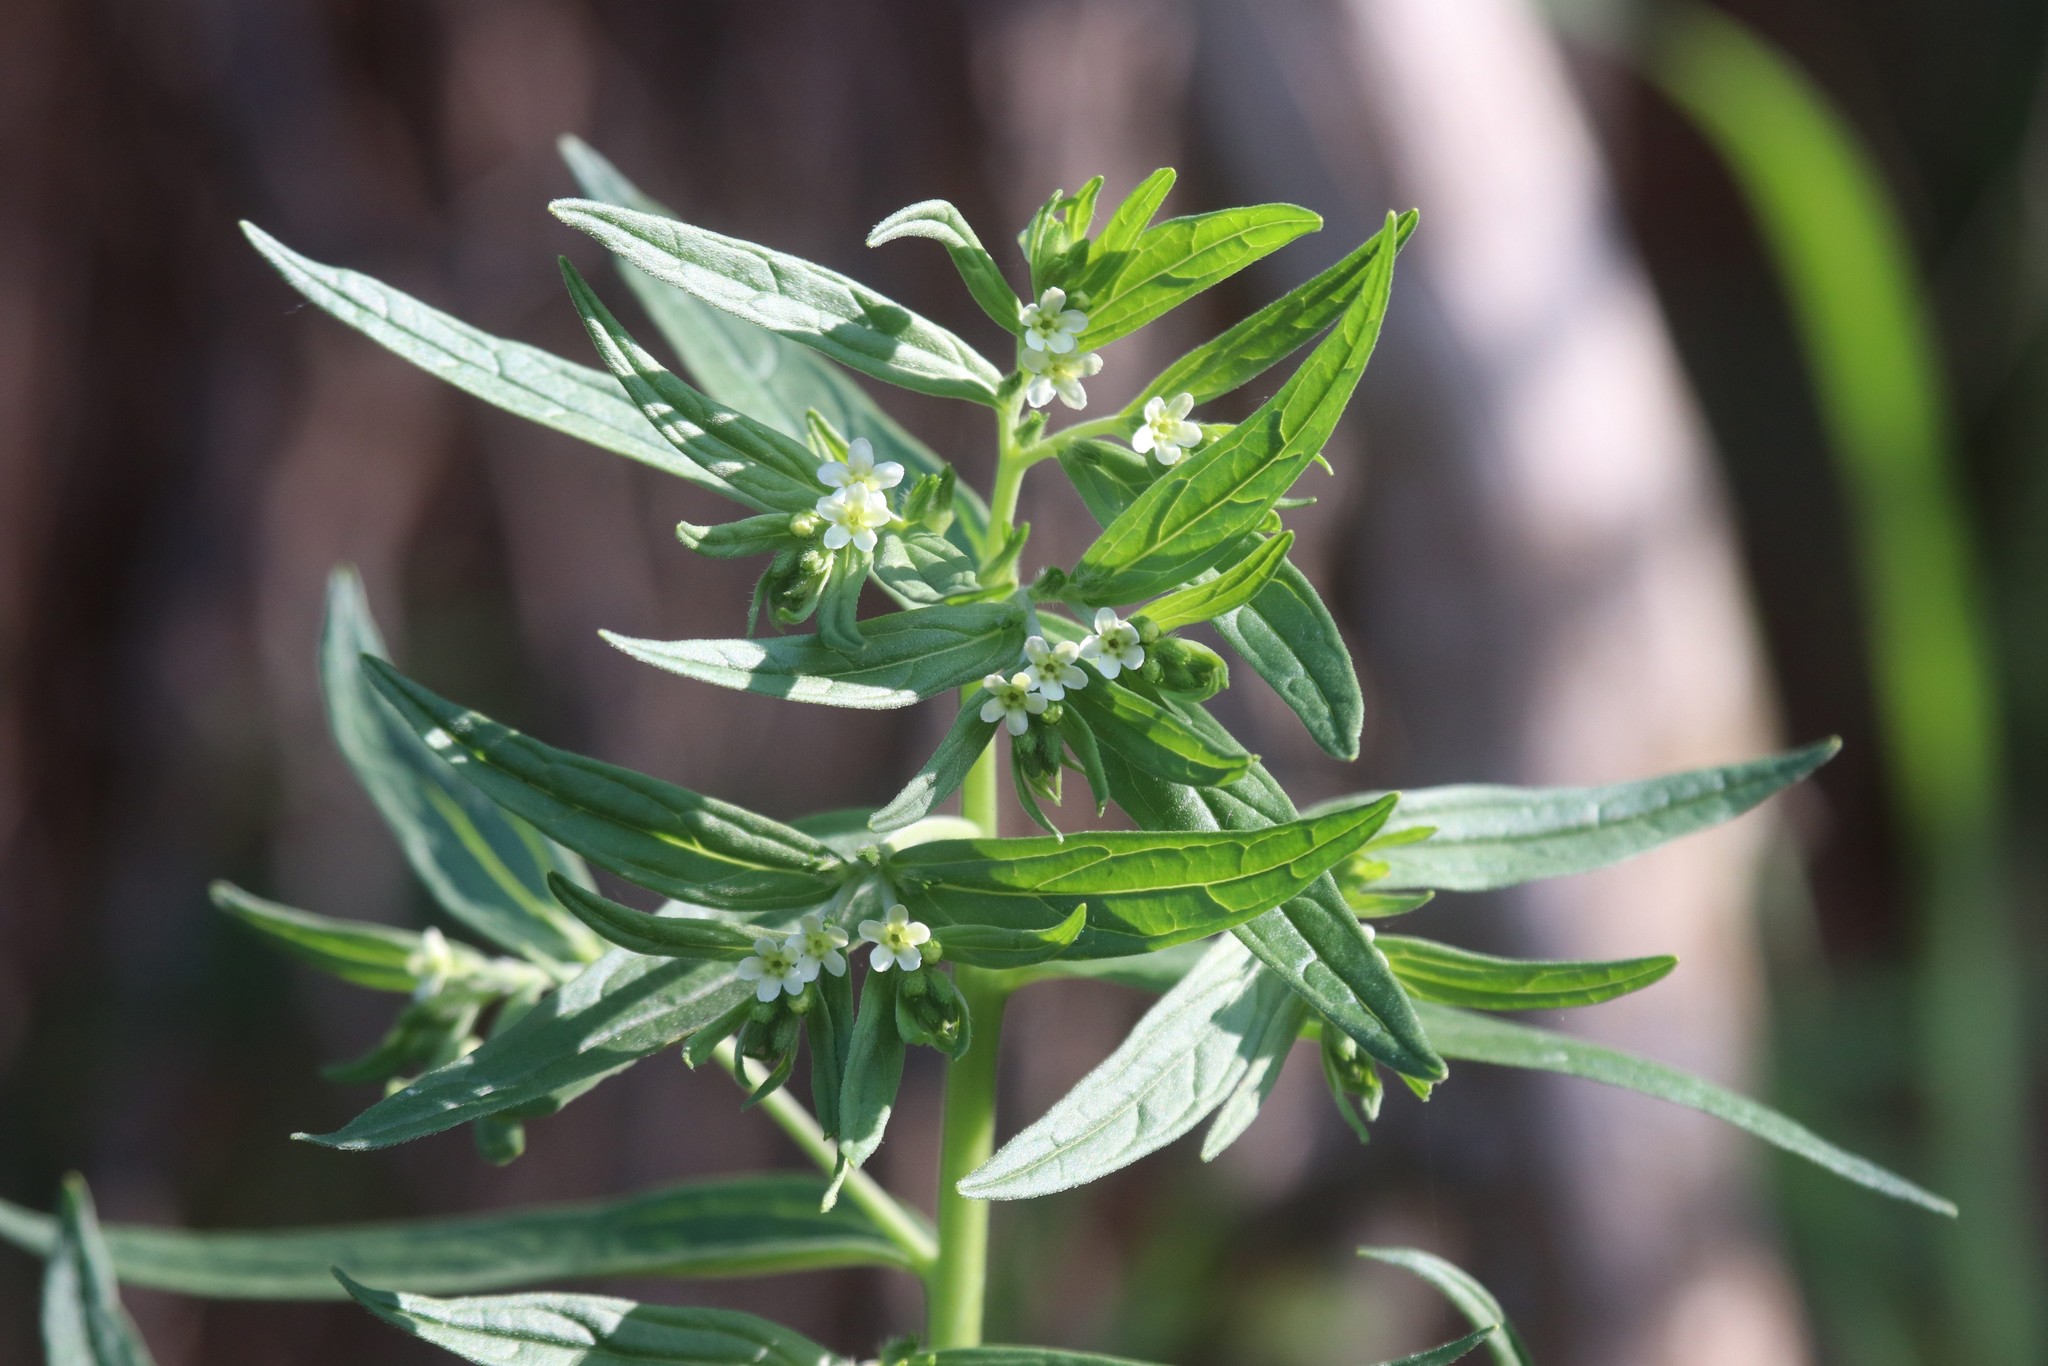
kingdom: Plantae
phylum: Tracheophyta
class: Magnoliopsida
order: Boraginales
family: Boraginaceae
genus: Lithospermum
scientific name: Lithospermum officinale
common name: Common gromwell
